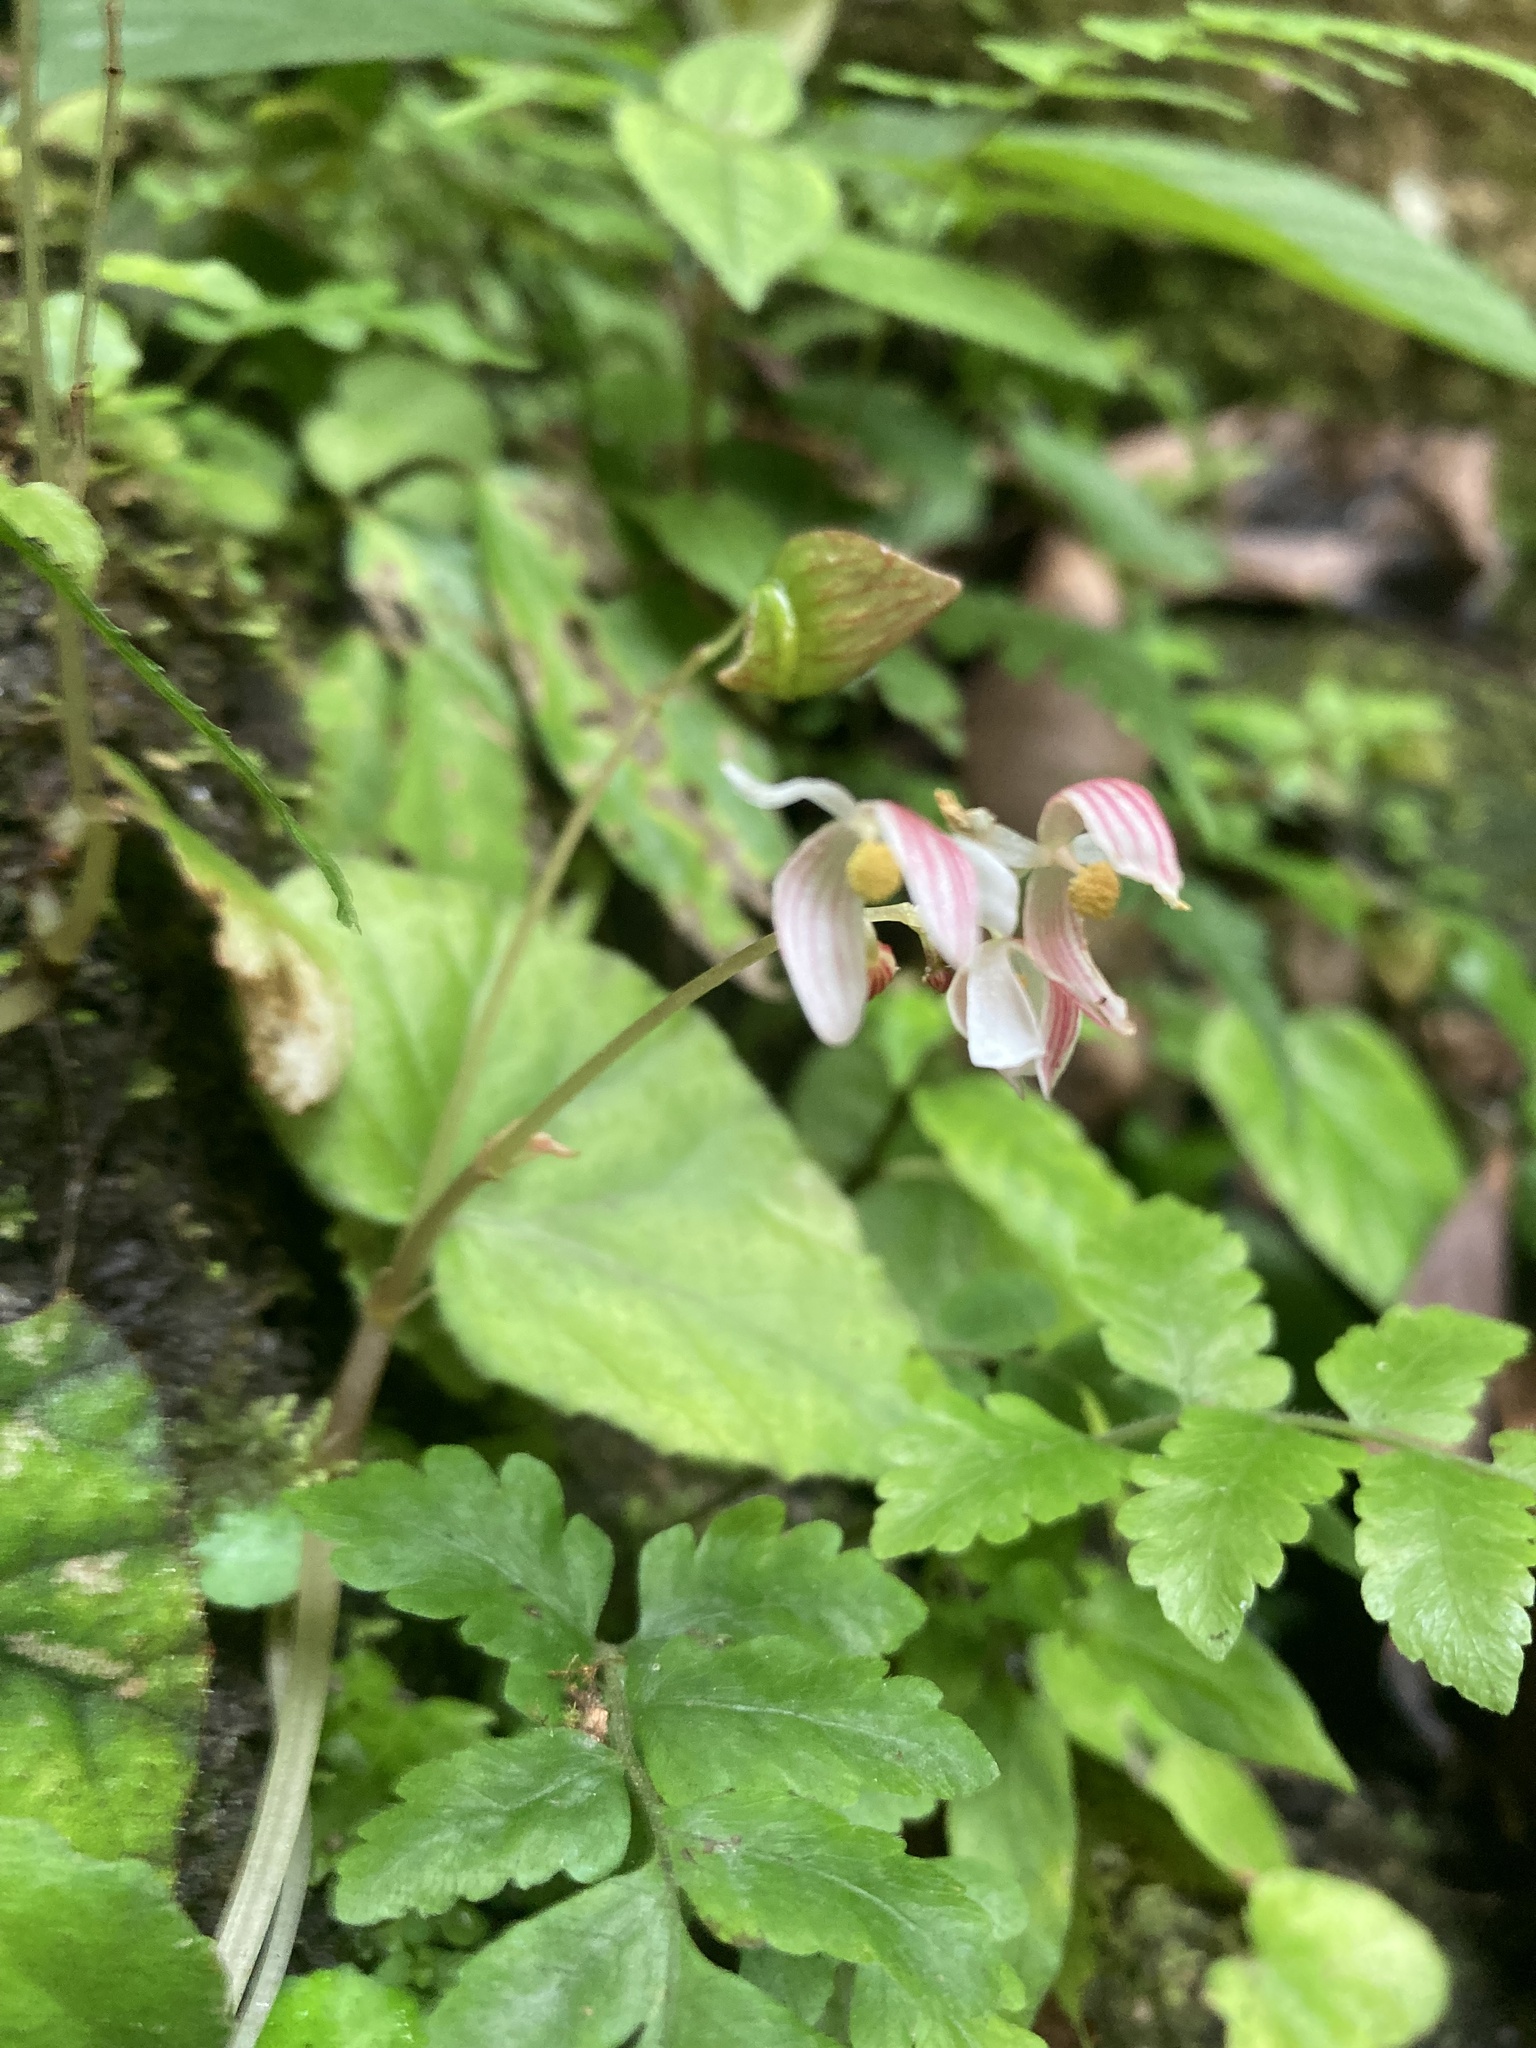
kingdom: Plantae
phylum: Tracheophyta
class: Magnoliopsida
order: Cucurbitales
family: Begoniaceae
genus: Begonia
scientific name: Begonia phoeniogramma
